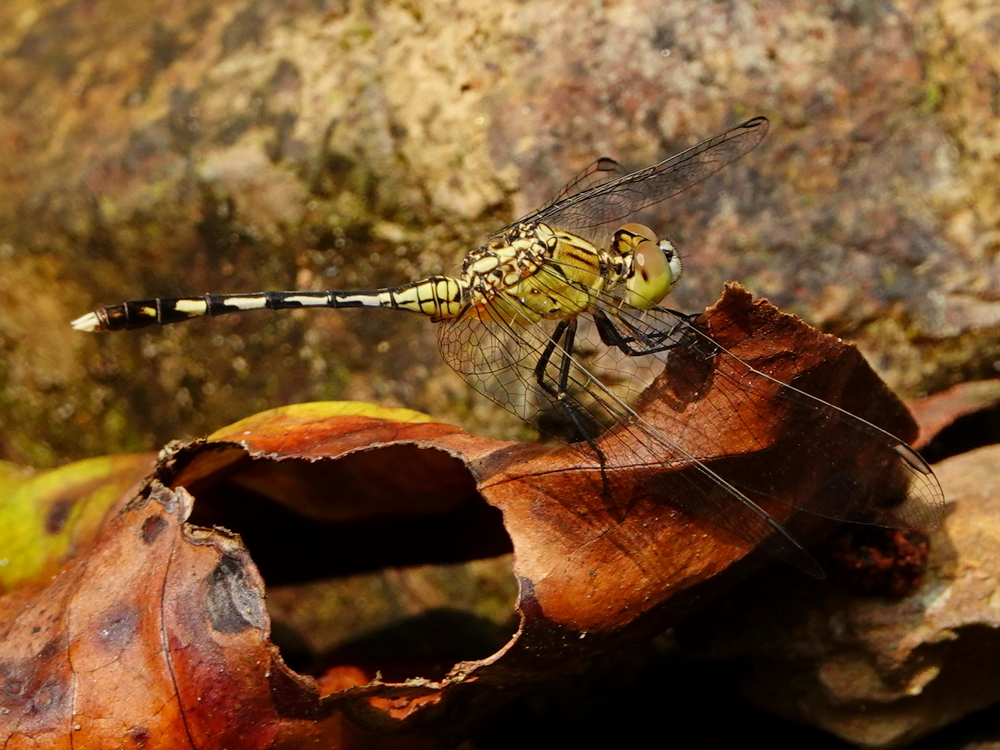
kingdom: Animalia
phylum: Arthropoda
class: Insecta
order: Odonata
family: Libellulidae
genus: Diplacodes
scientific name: Diplacodes trivialis
